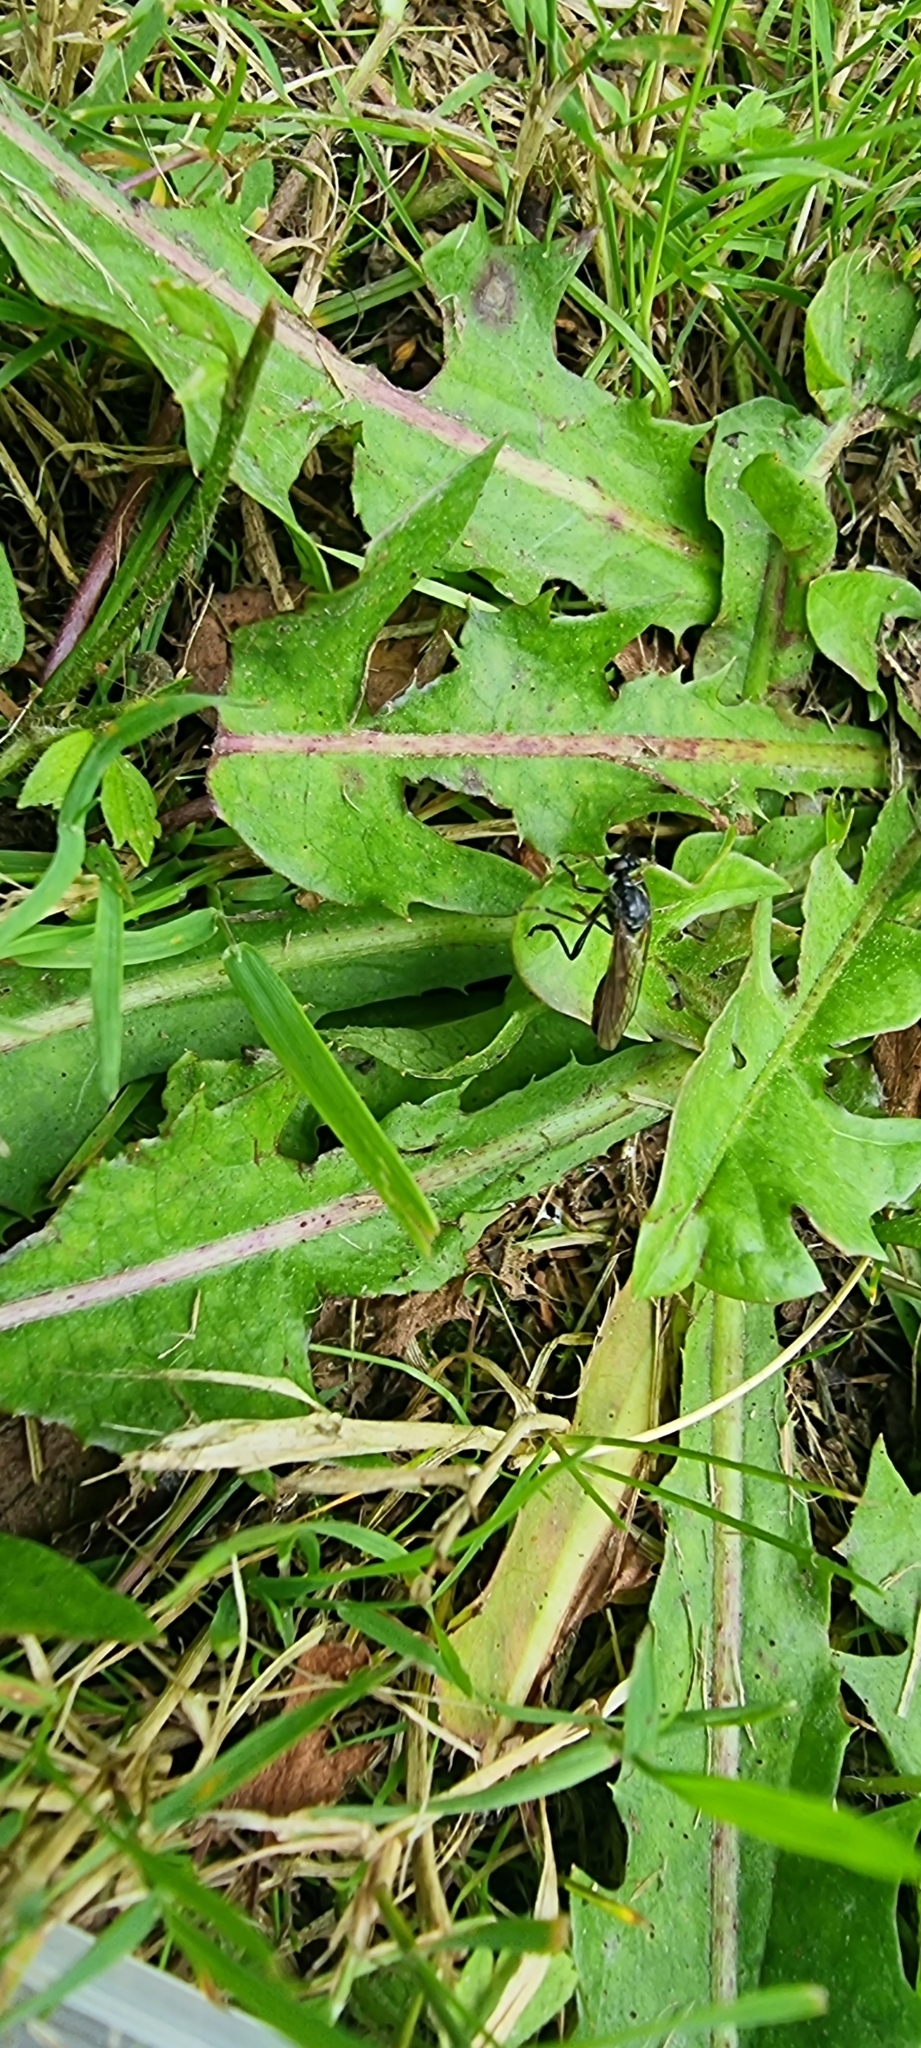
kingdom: Animalia
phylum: Arthropoda
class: Insecta
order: Diptera
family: Asilidae
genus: Dioctria
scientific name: Dioctria hyalipennis
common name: Stripe-legged robberfly
